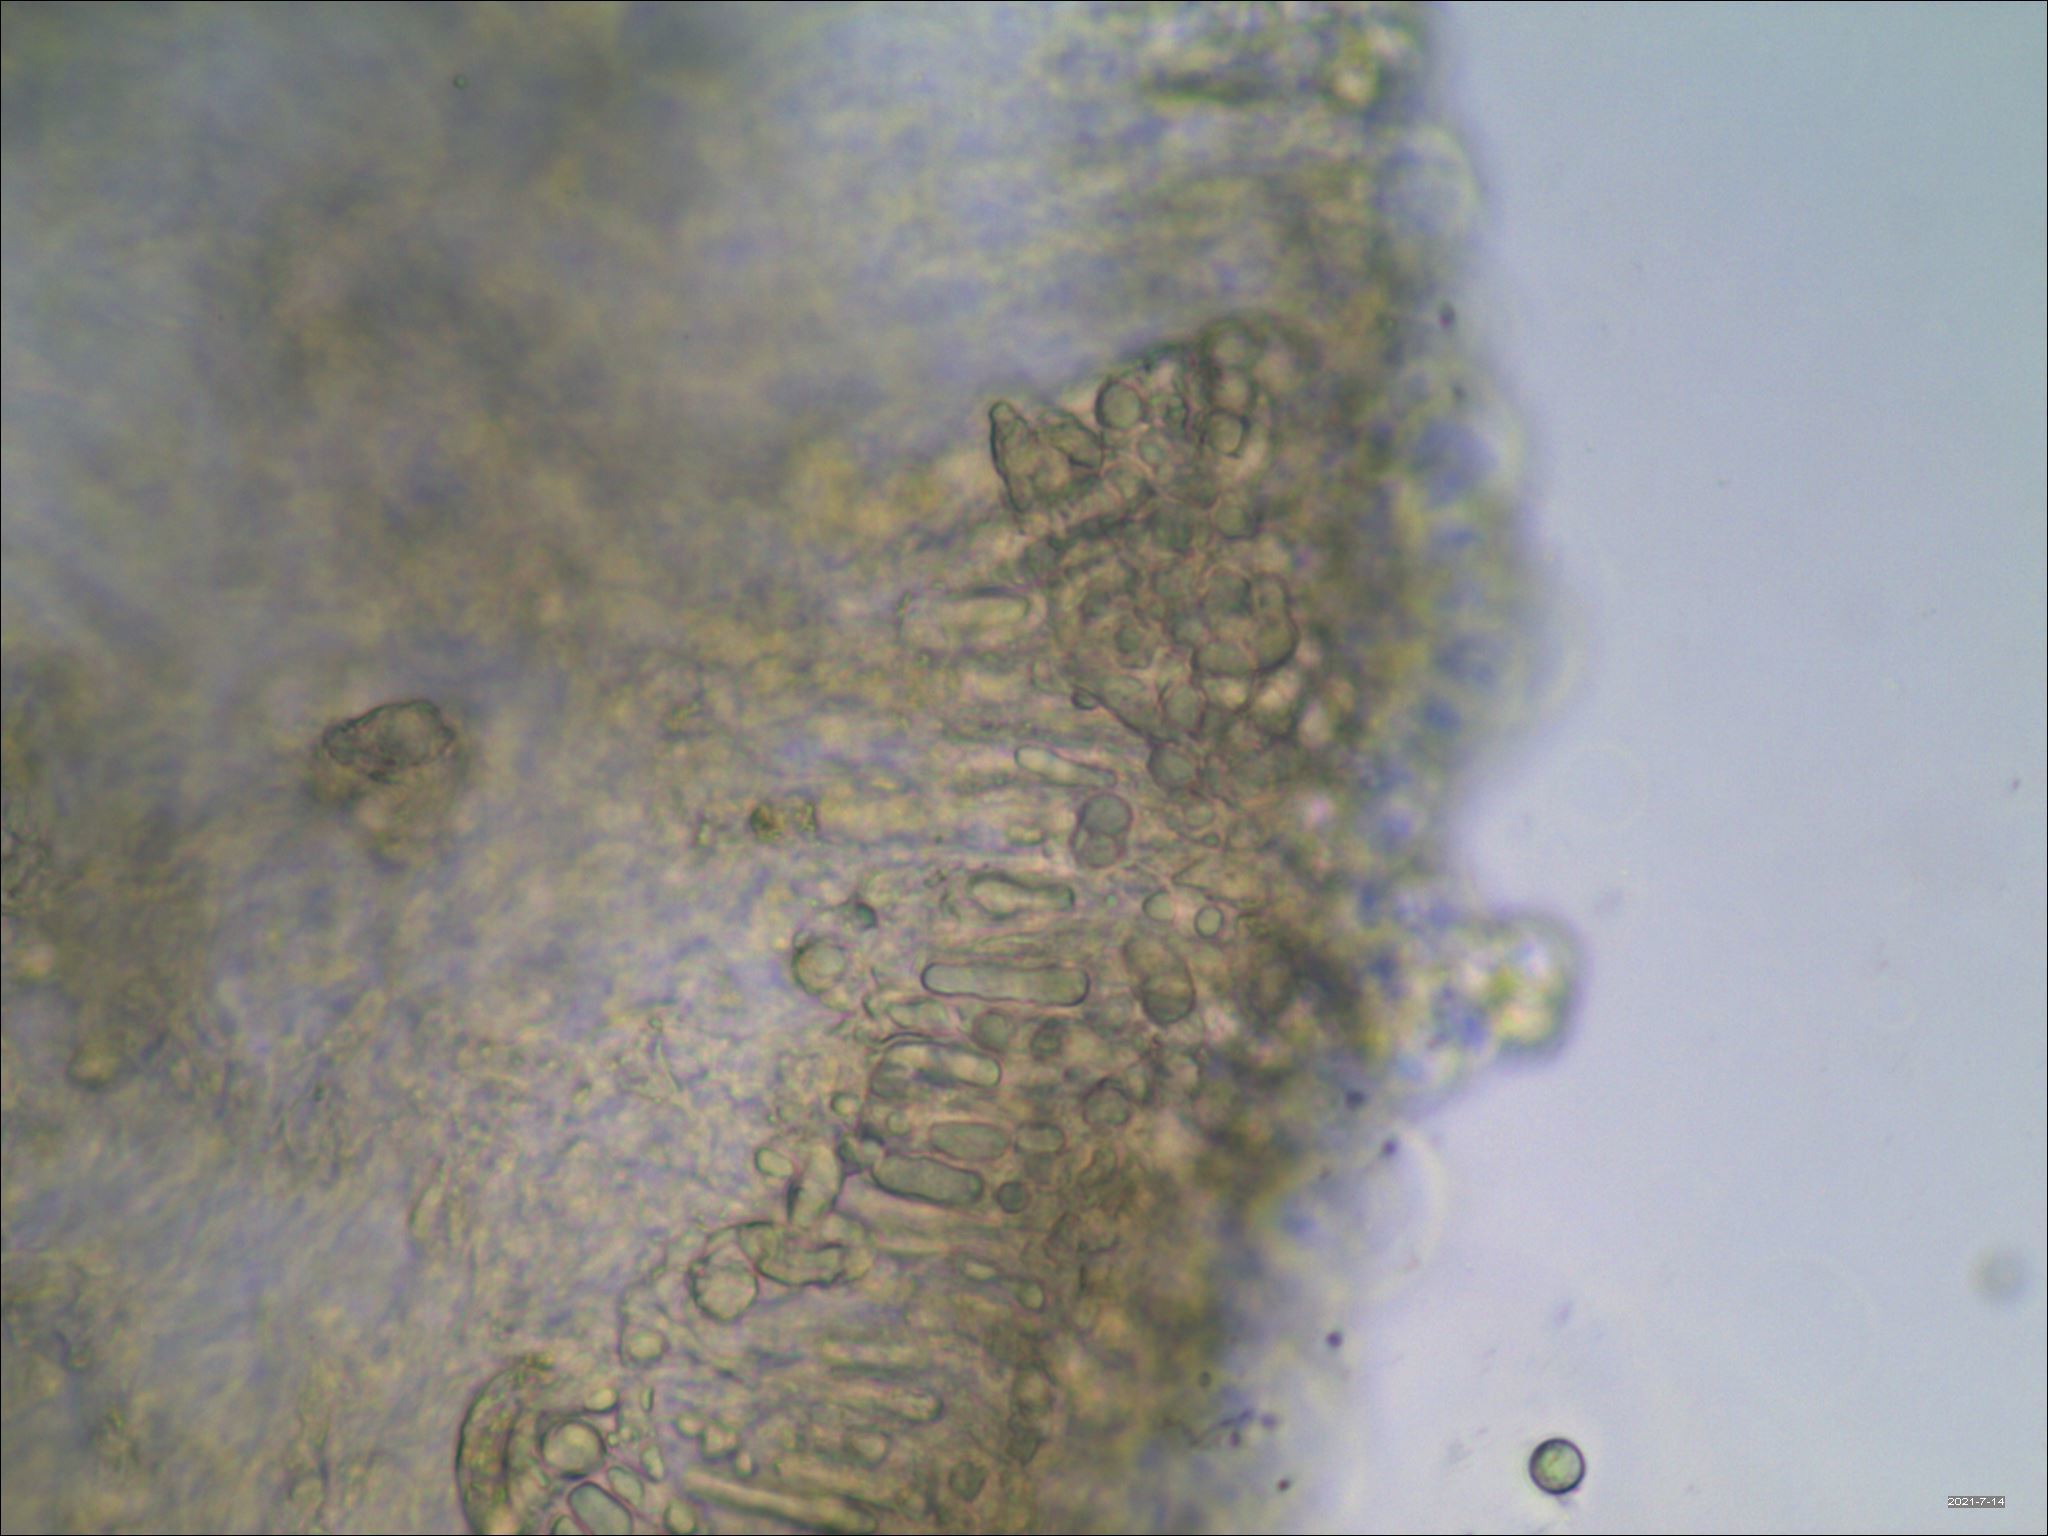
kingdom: Fungi
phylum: Basidiomycota
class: Agaricomycetes
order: Russulales
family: Russulaceae
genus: Russula
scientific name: Russula adusta
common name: Winecork brittlegill
